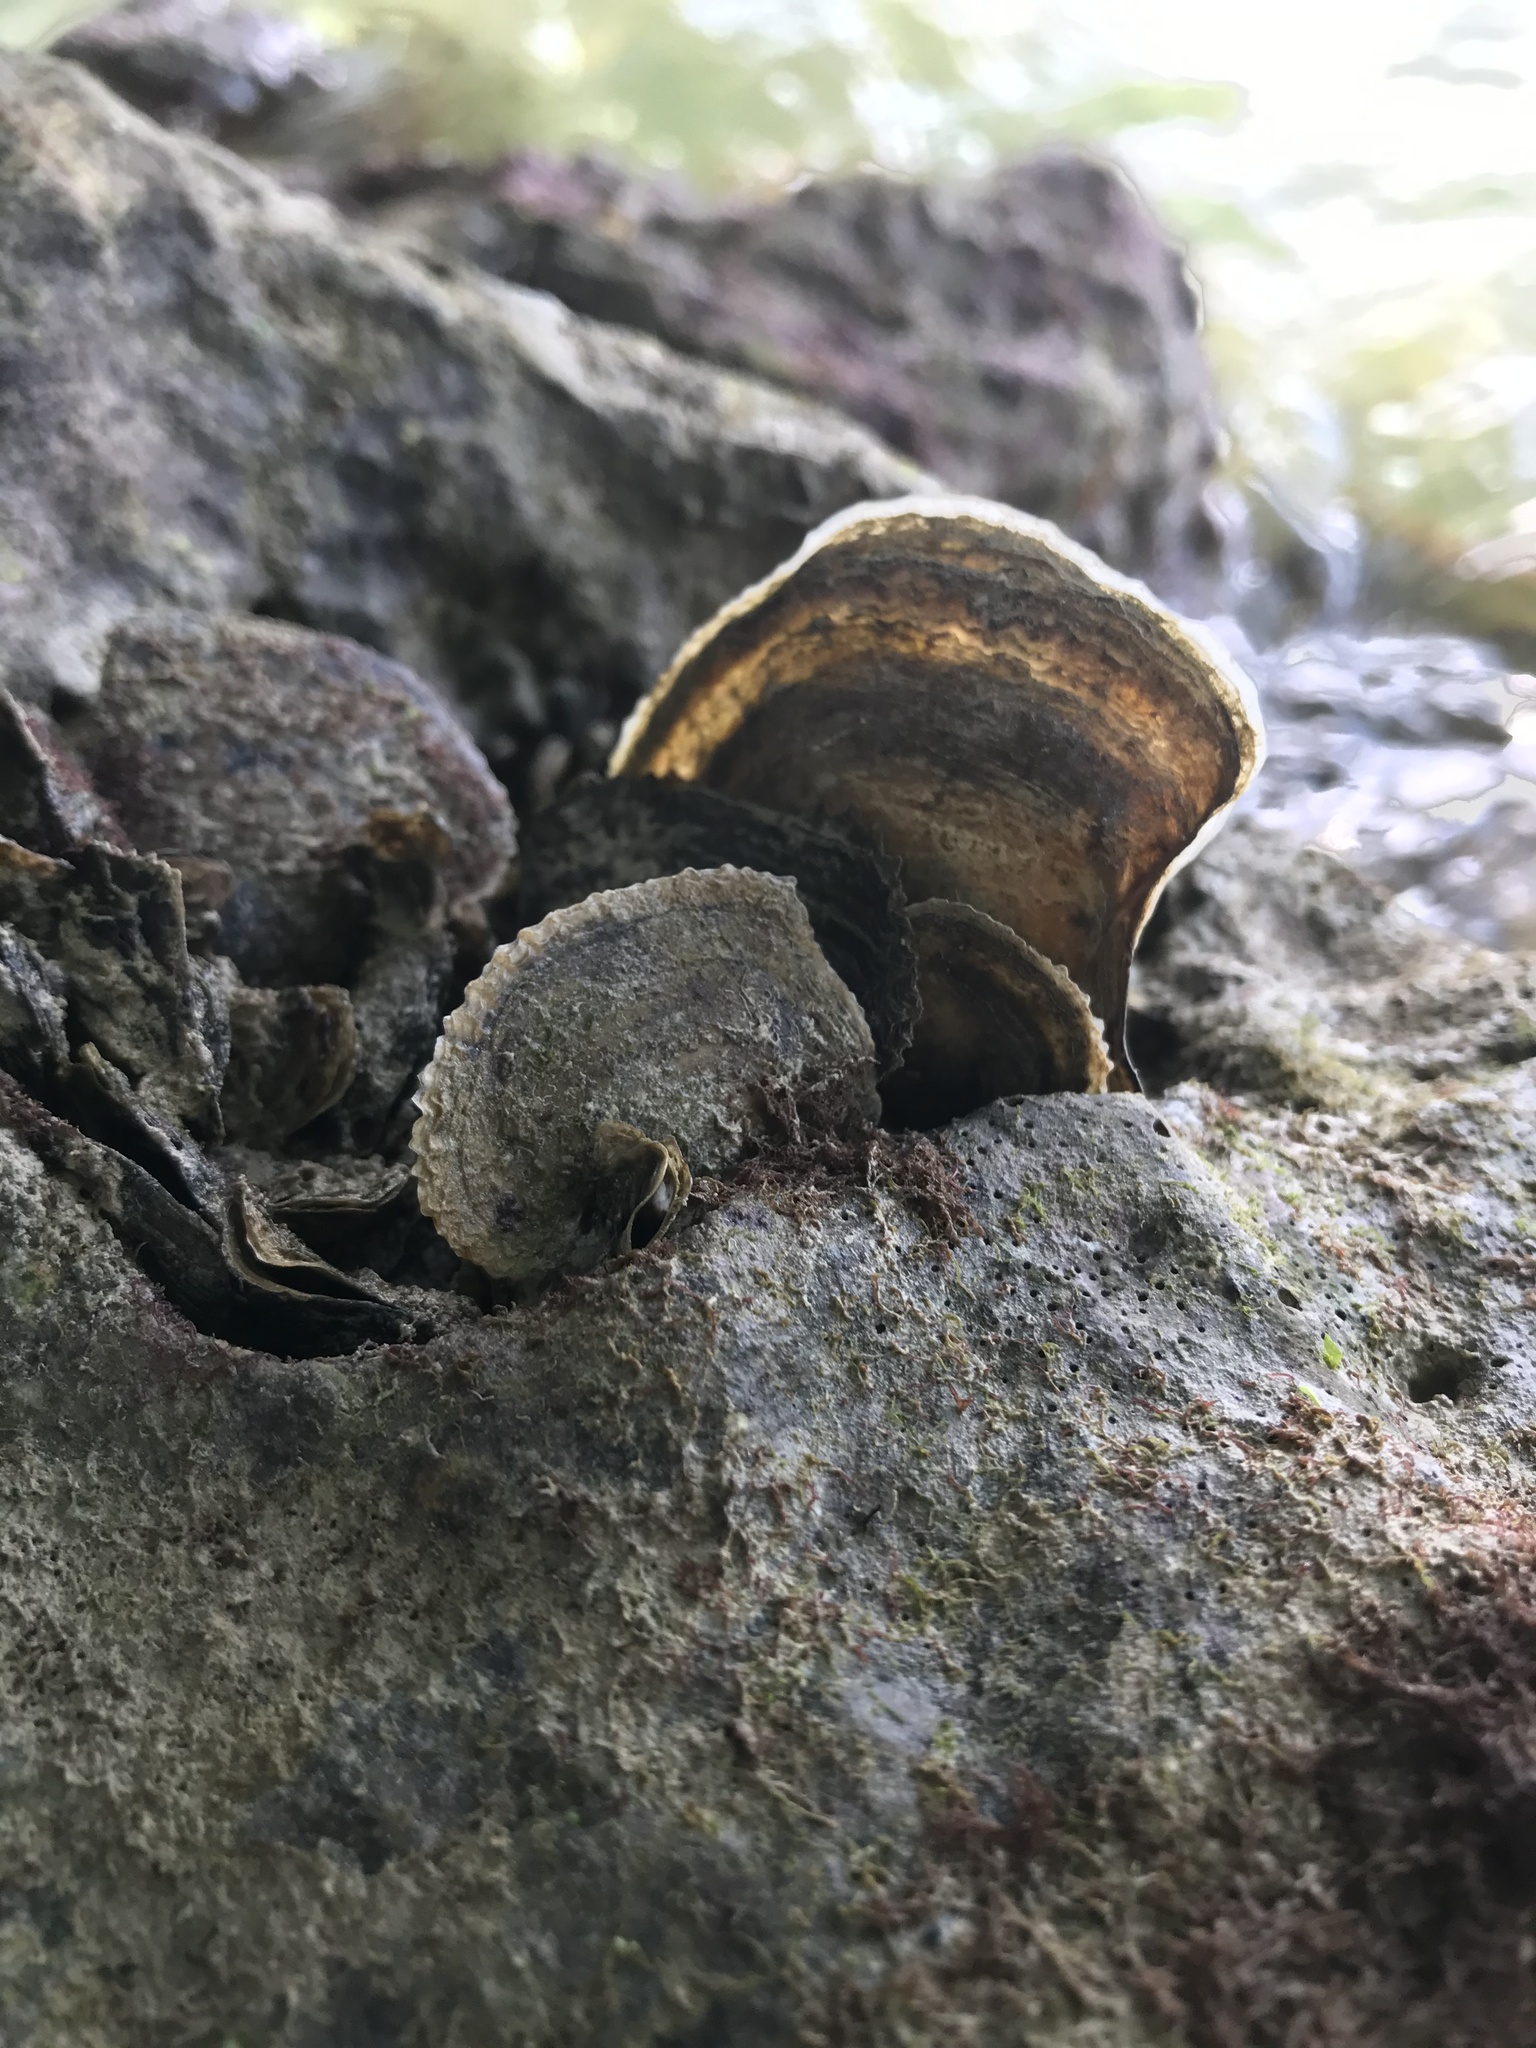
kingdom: Animalia
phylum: Mollusca
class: Bivalvia
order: Ostreida
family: Isognomonidae
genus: Isognomon
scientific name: Isognomon alatus
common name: Flat tree-oyster
